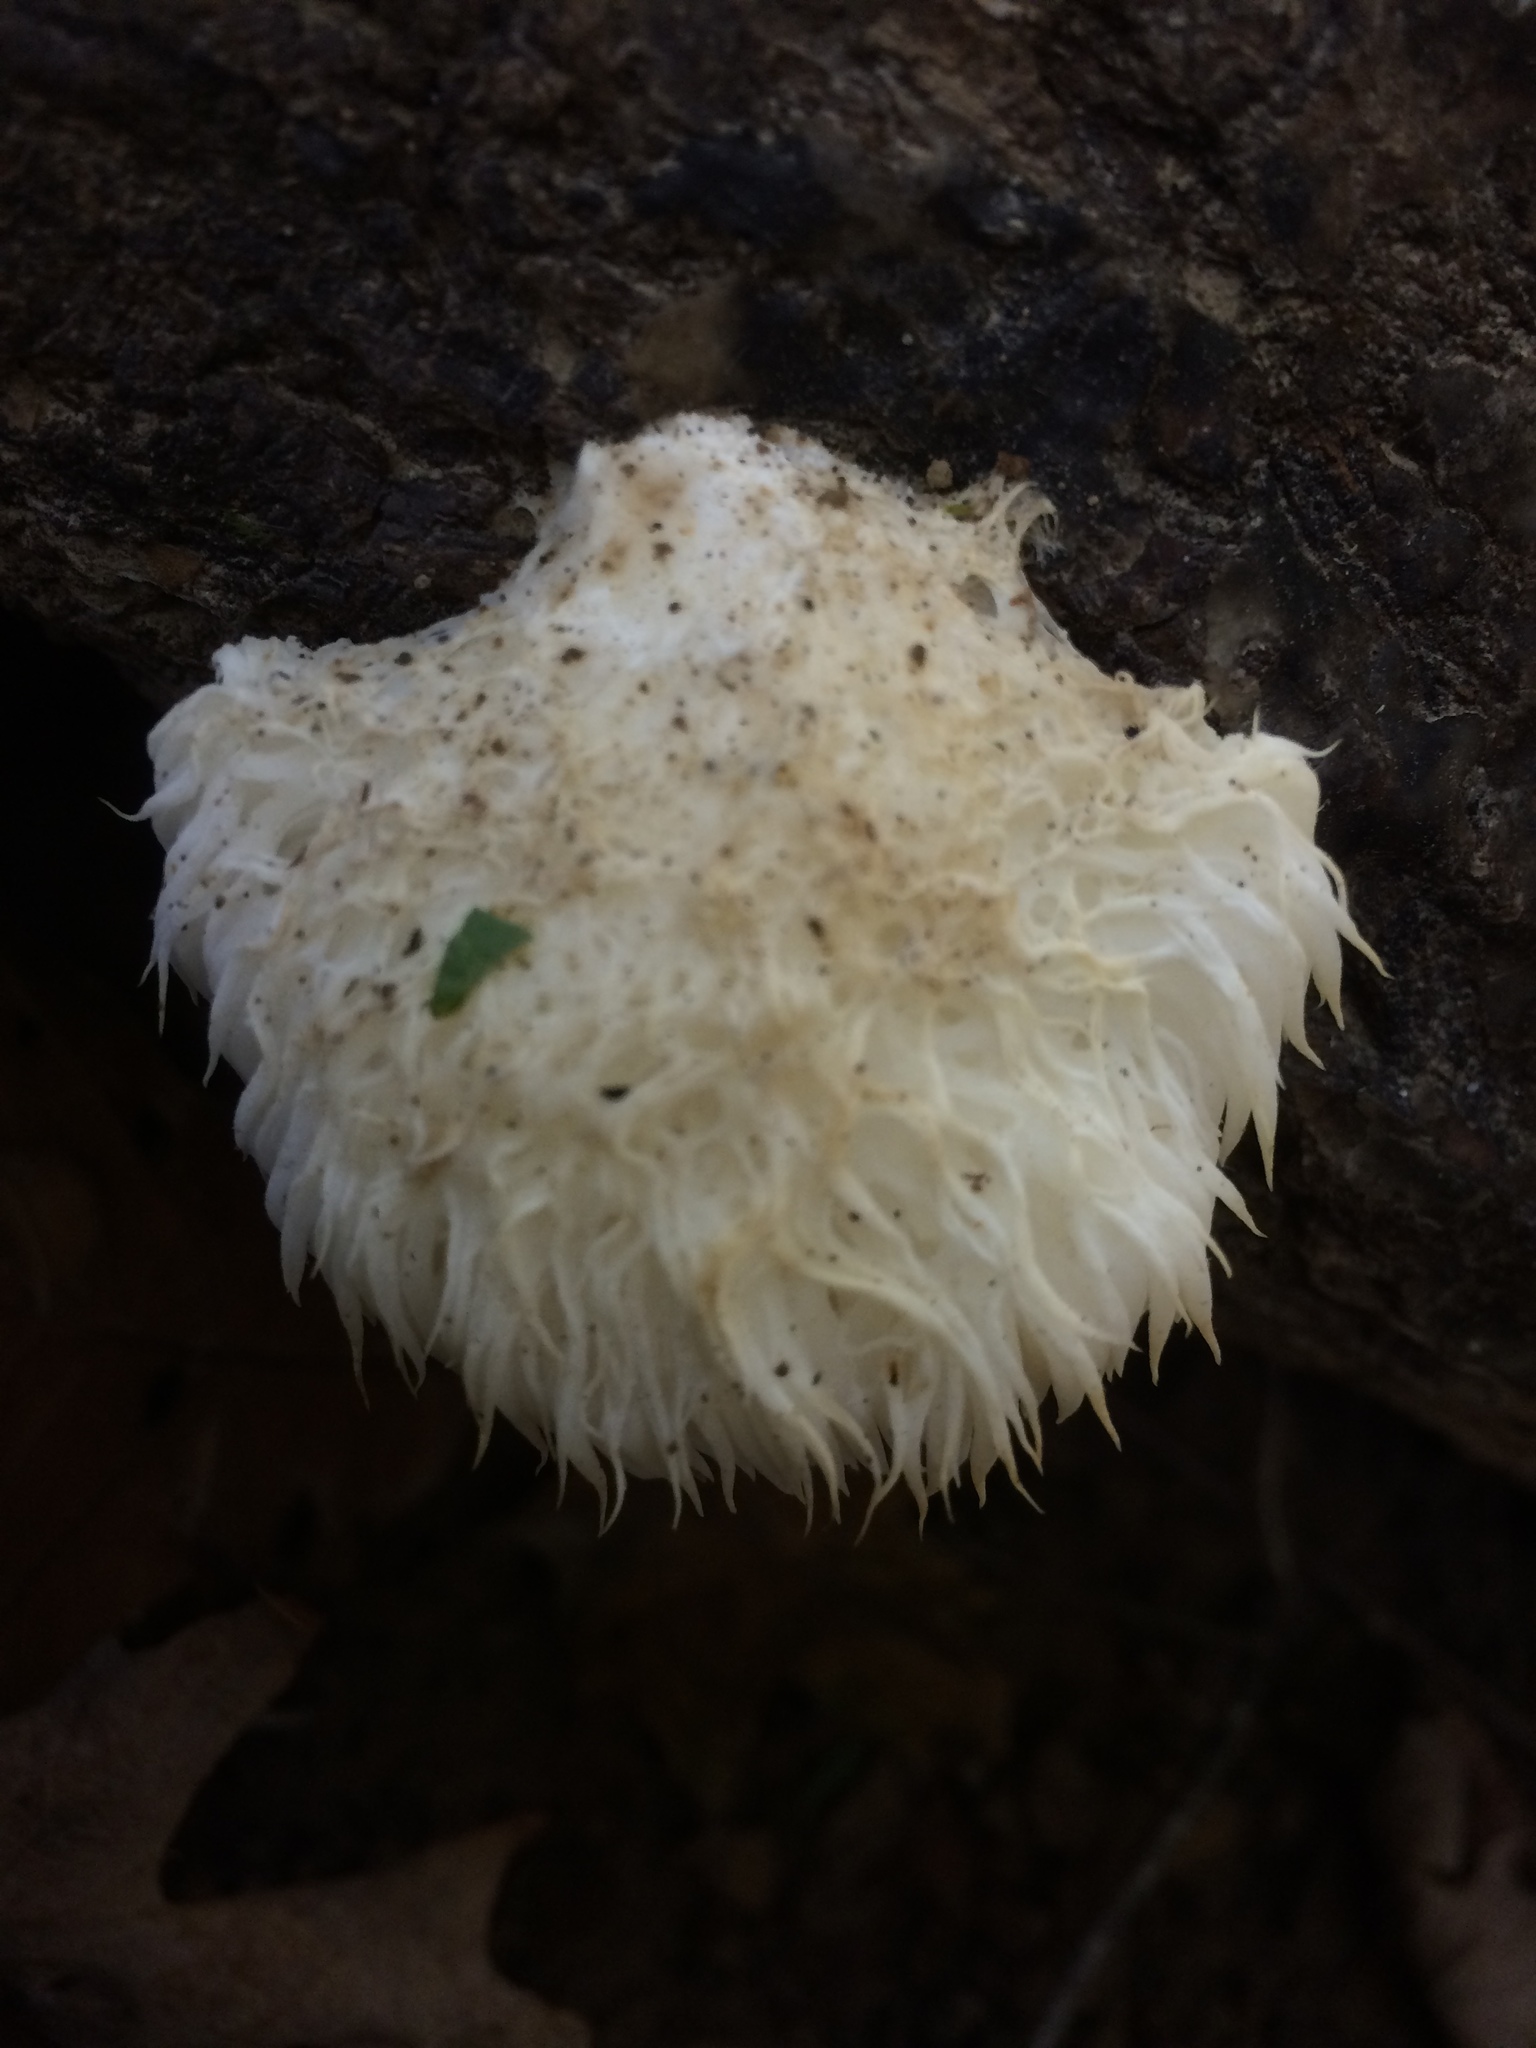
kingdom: Fungi
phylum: Basidiomycota
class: Agaricomycetes
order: Russulales
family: Hericiaceae
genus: Hericium
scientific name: Hericium erinaceus
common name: Bearded tooth
